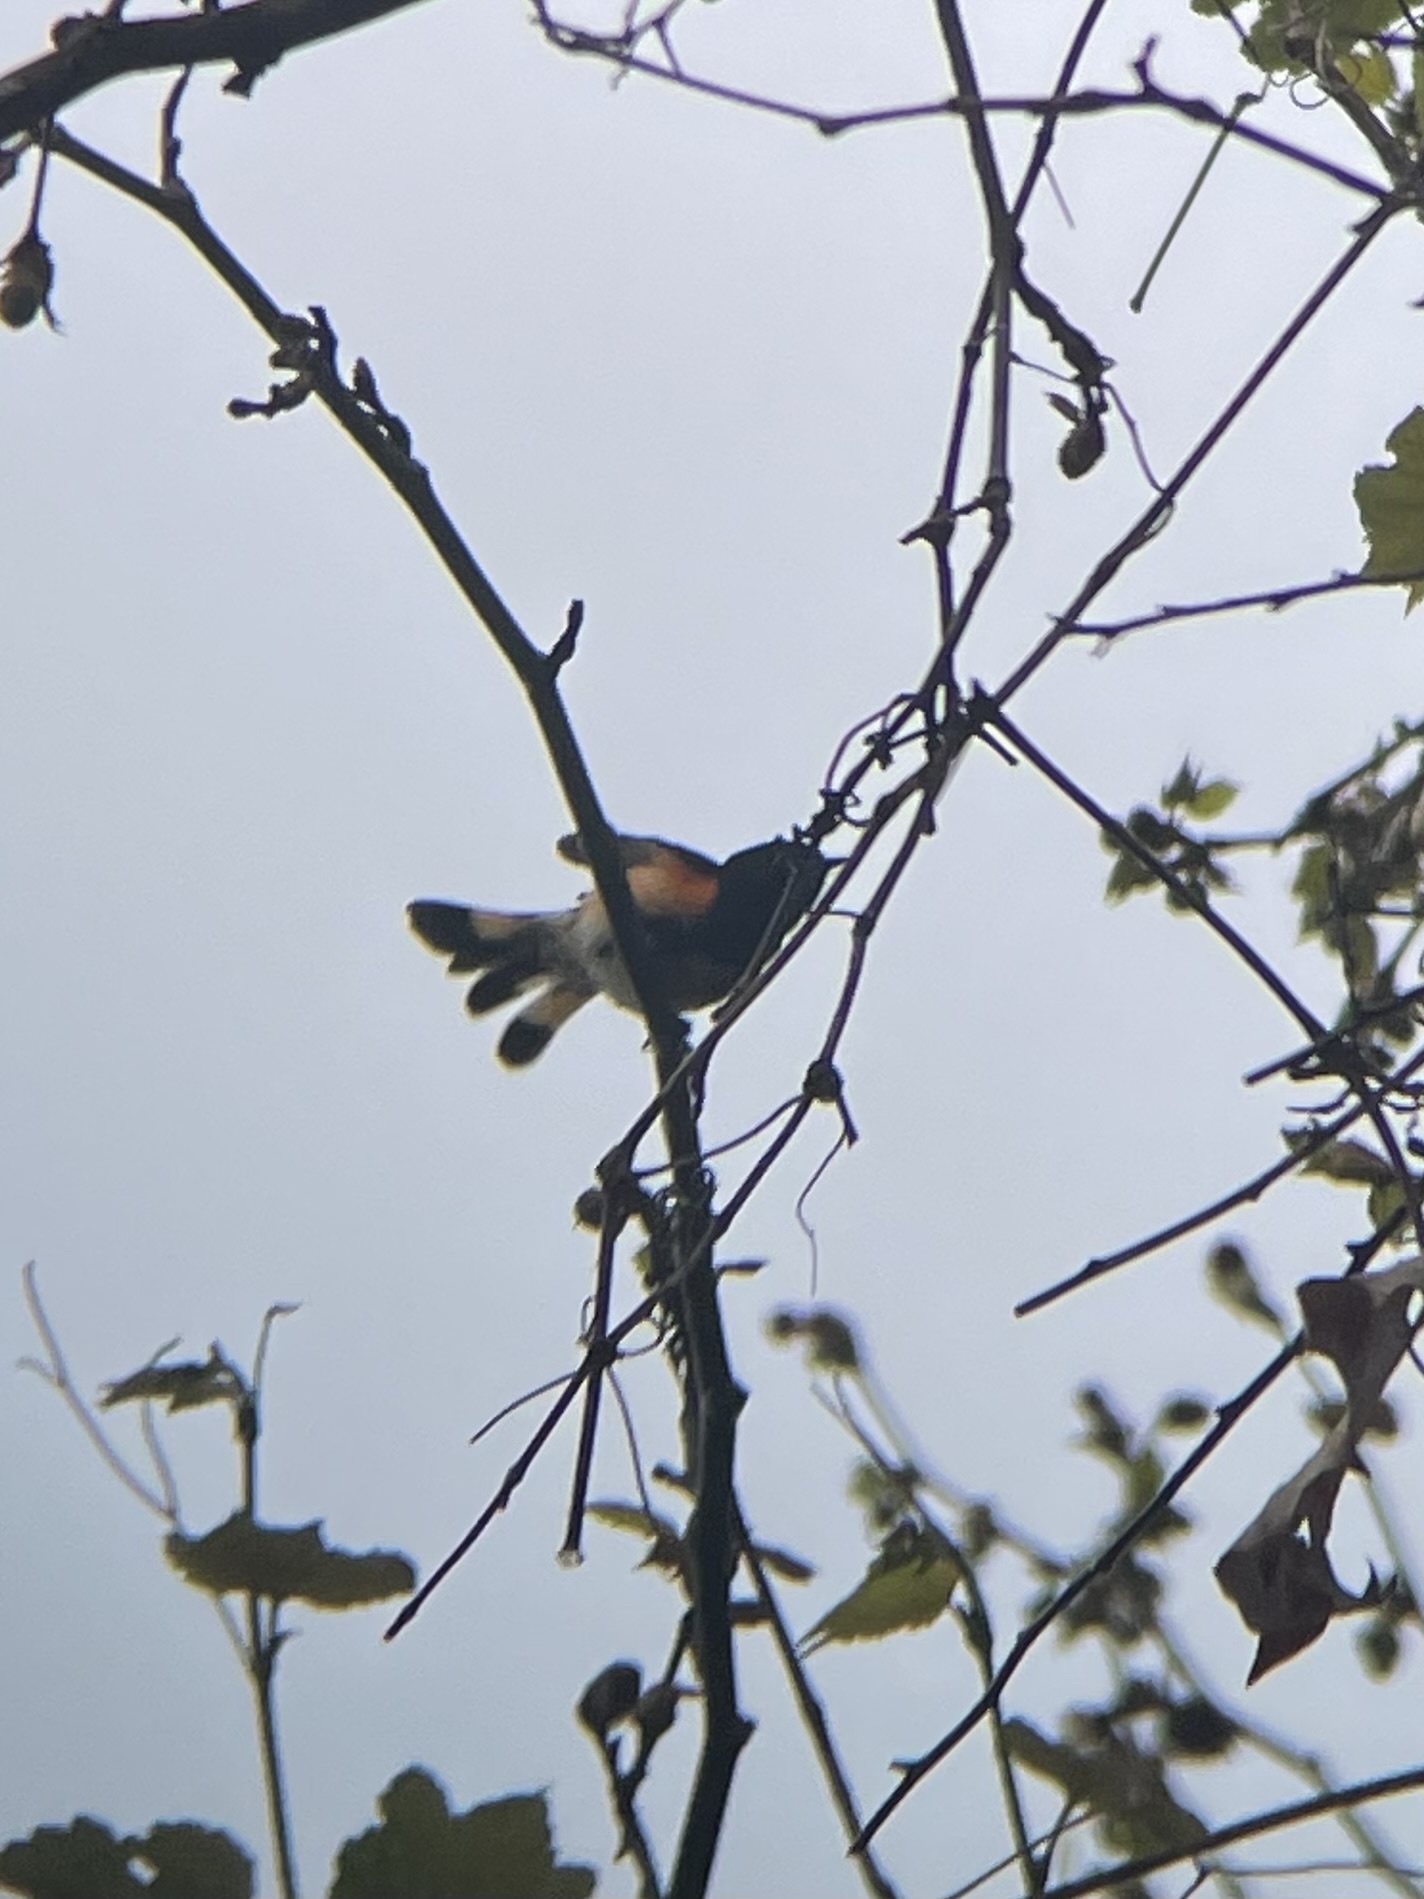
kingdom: Animalia
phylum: Chordata
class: Aves
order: Passeriformes
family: Parulidae
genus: Setophaga
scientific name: Setophaga ruticilla
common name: American redstart
